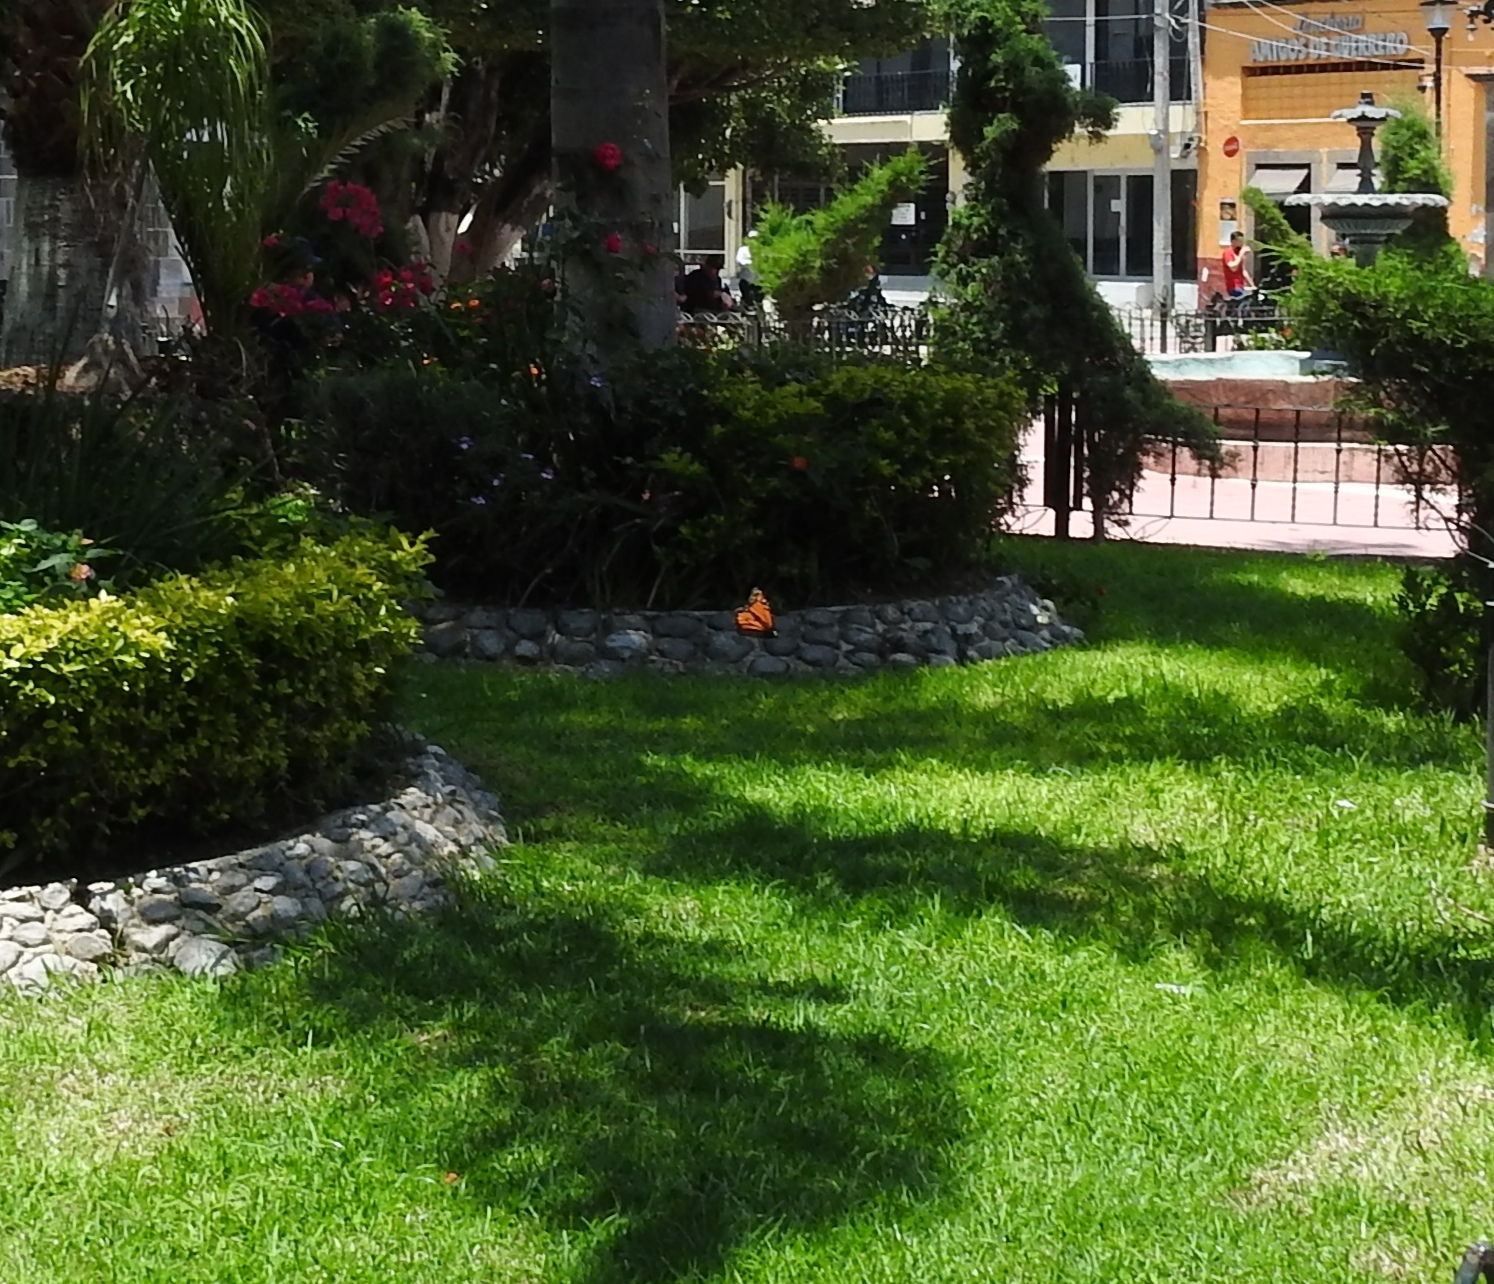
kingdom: Animalia
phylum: Arthropoda
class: Insecta
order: Lepidoptera
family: Nymphalidae
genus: Danaus
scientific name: Danaus plexippus
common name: Monarch
